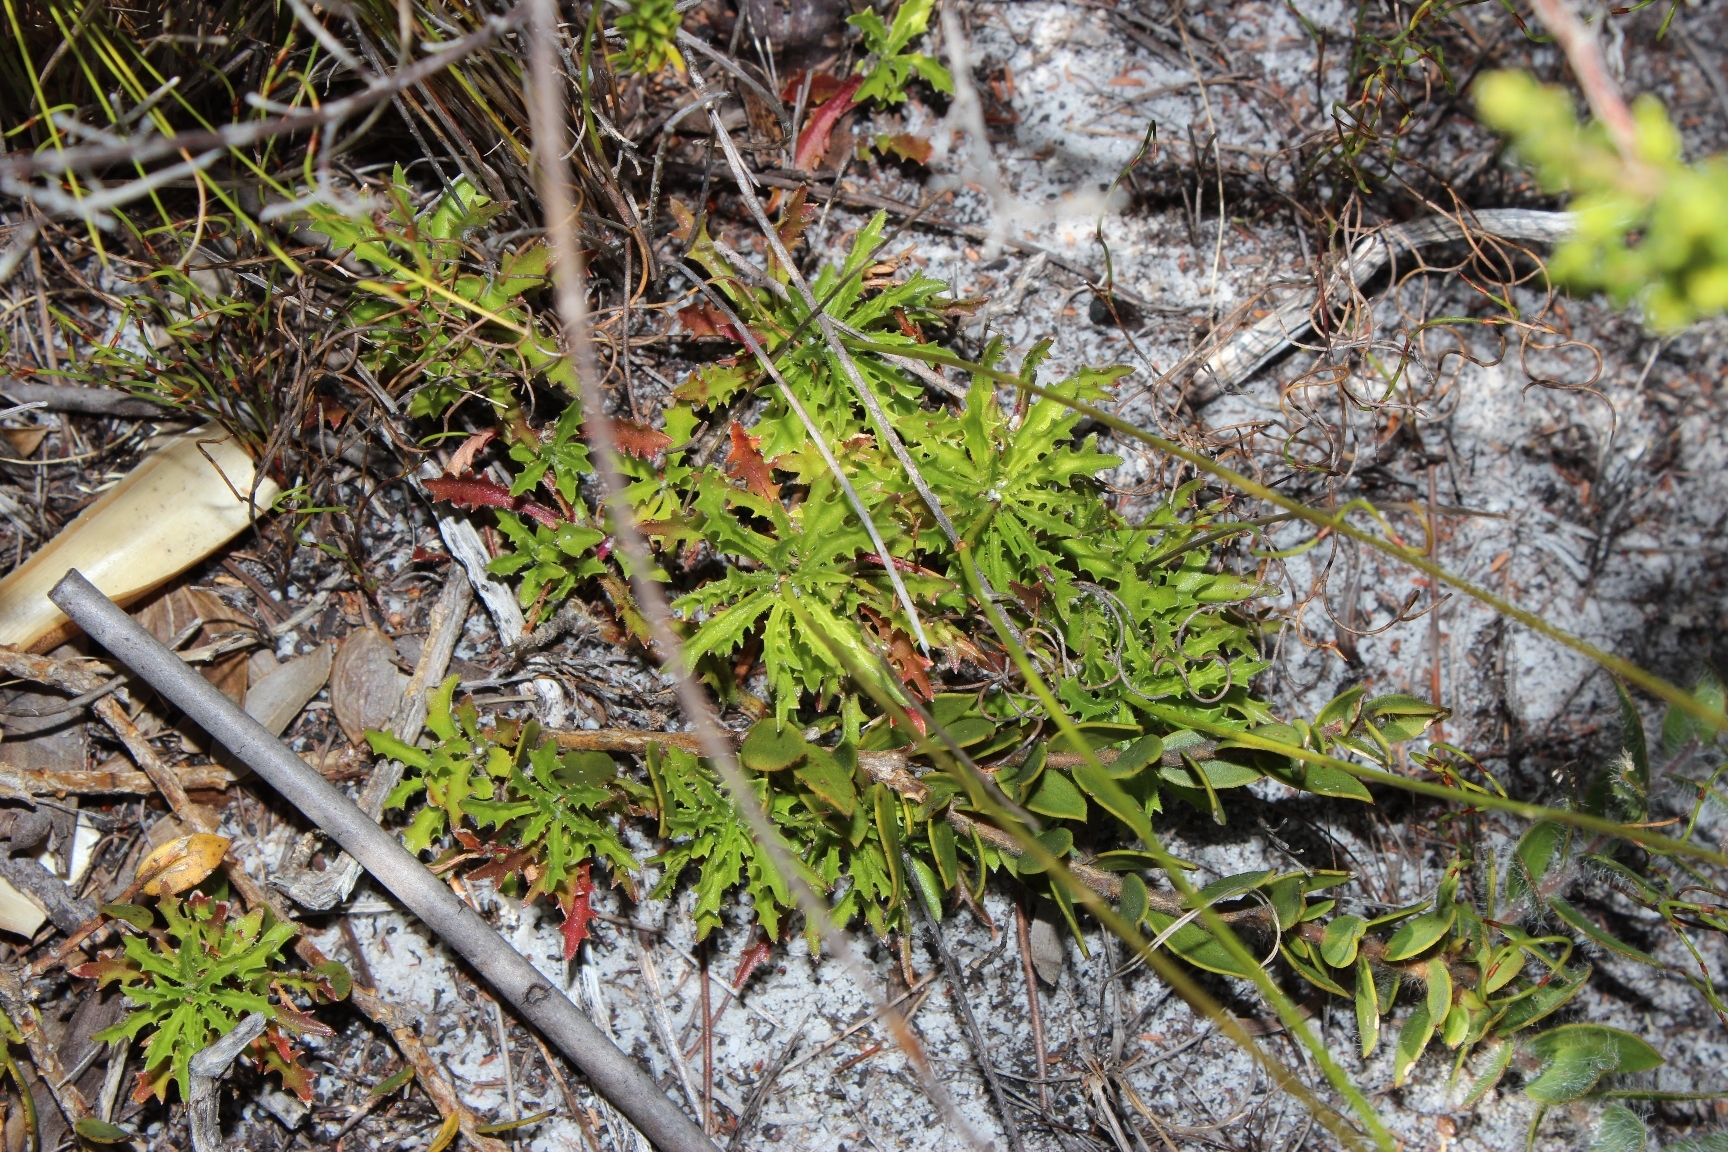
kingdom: Plantae
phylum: Tracheophyta
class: Magnoliopsida
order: Asterales
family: Campanulaceae
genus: Lobelia
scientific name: Lobelia coronopifolia
